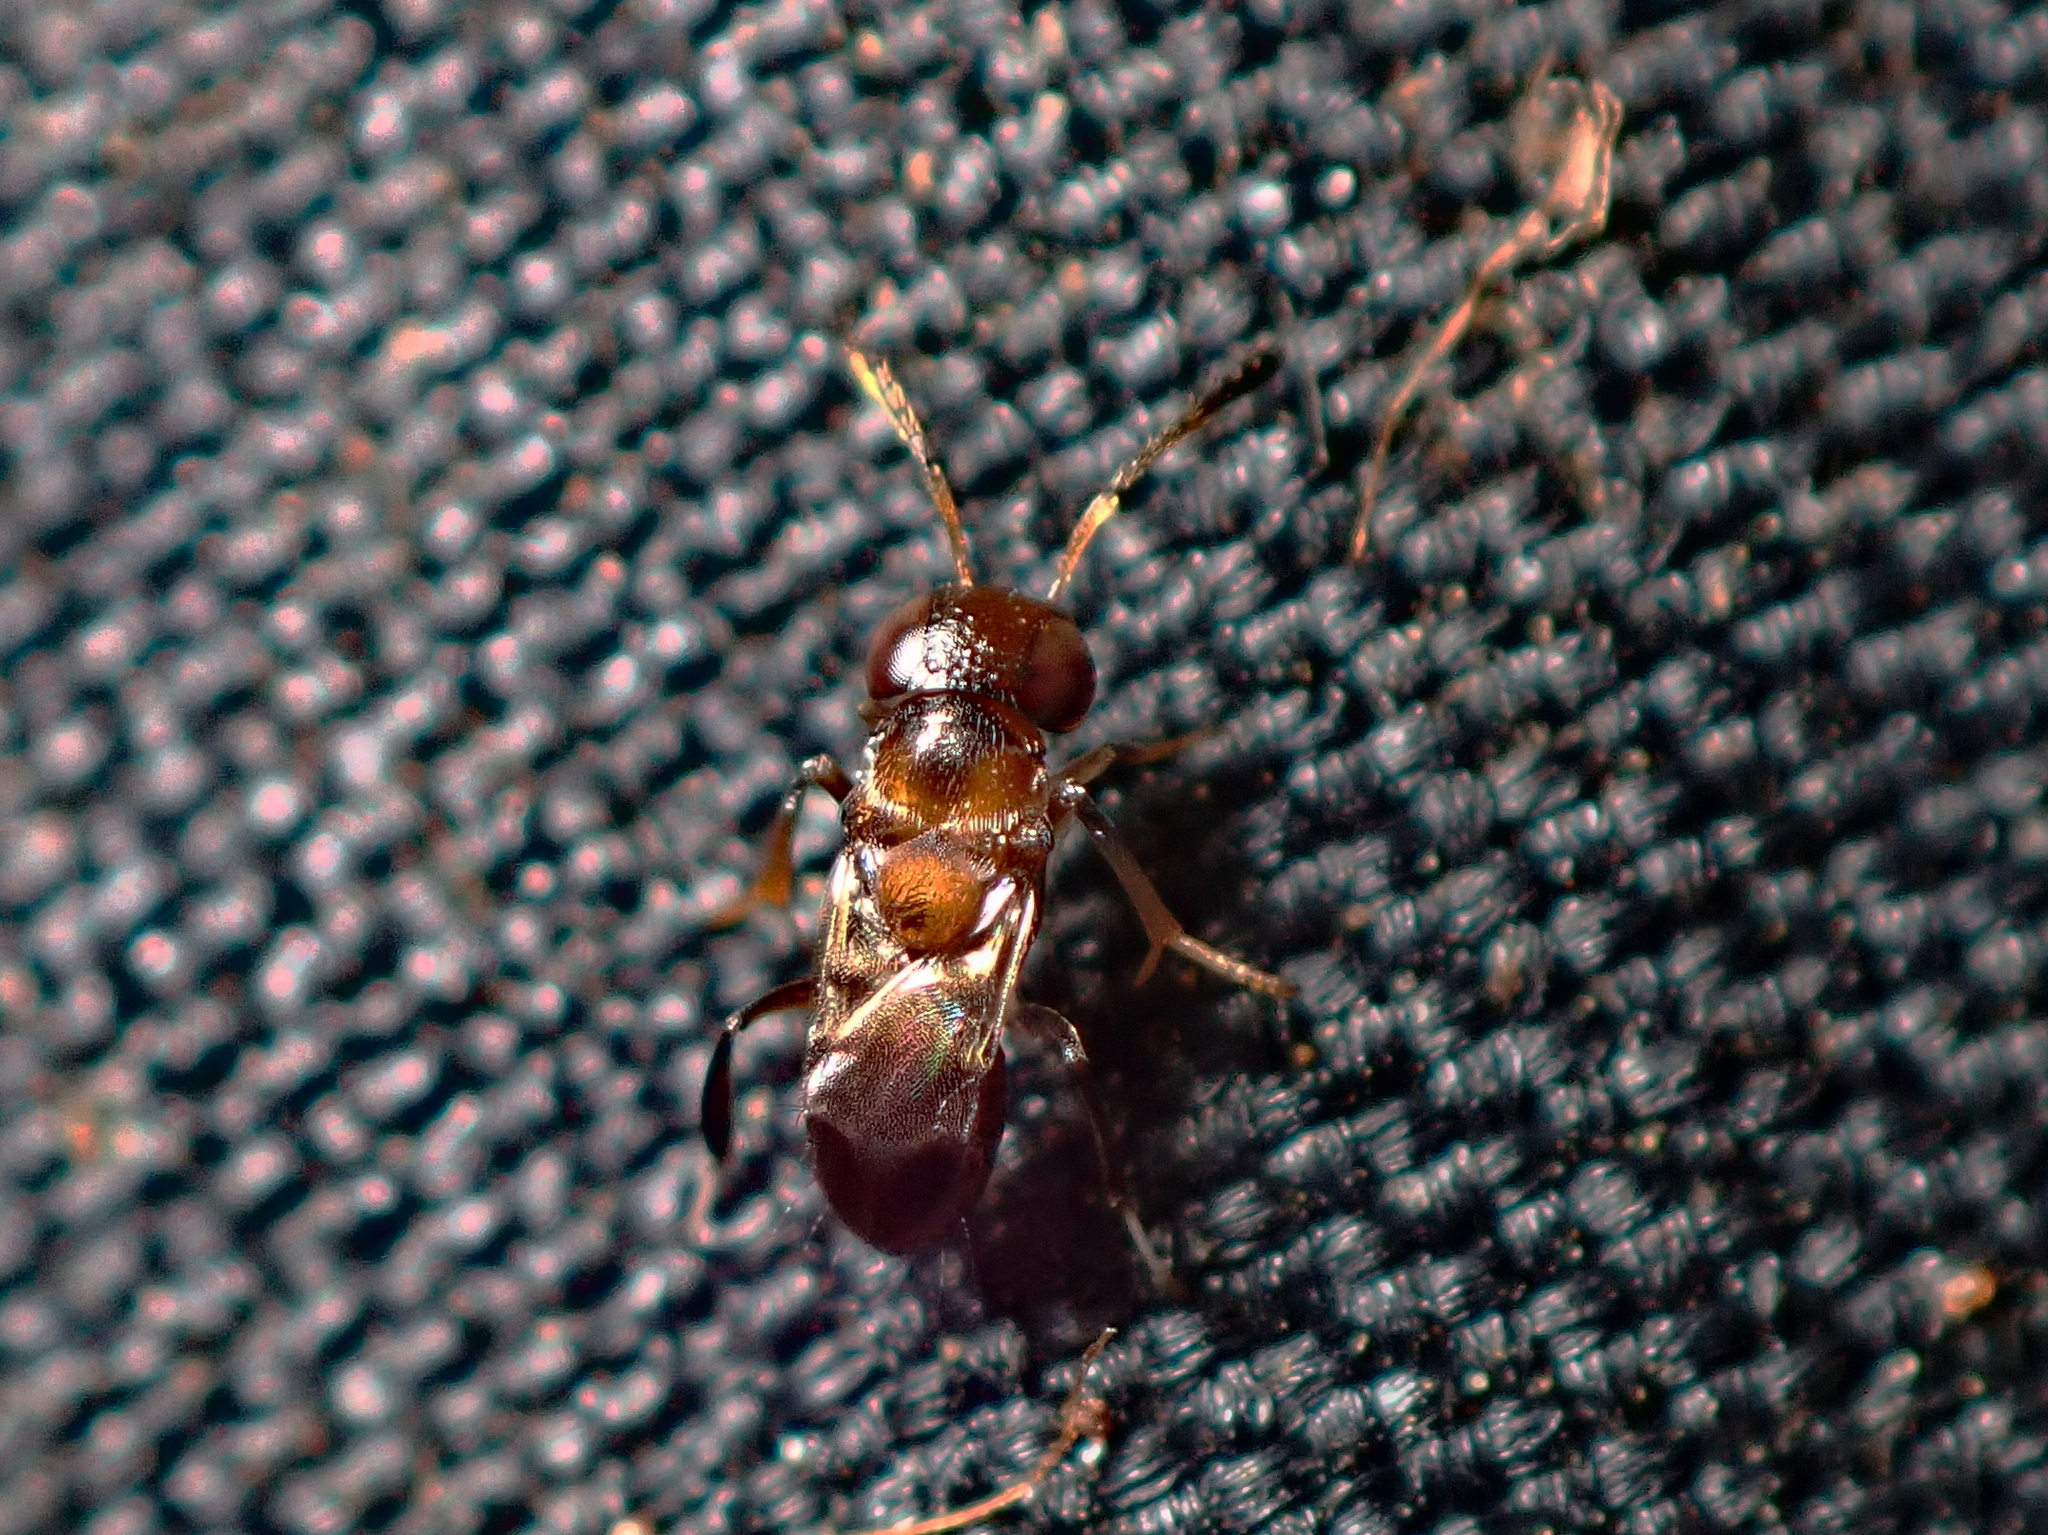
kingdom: Animalia
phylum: Arthropoda
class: Insecta
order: Hymenoptera
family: Encyrtidae
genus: Encyrtus
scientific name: Encyrtus infelix
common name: Parasitoid wasp
